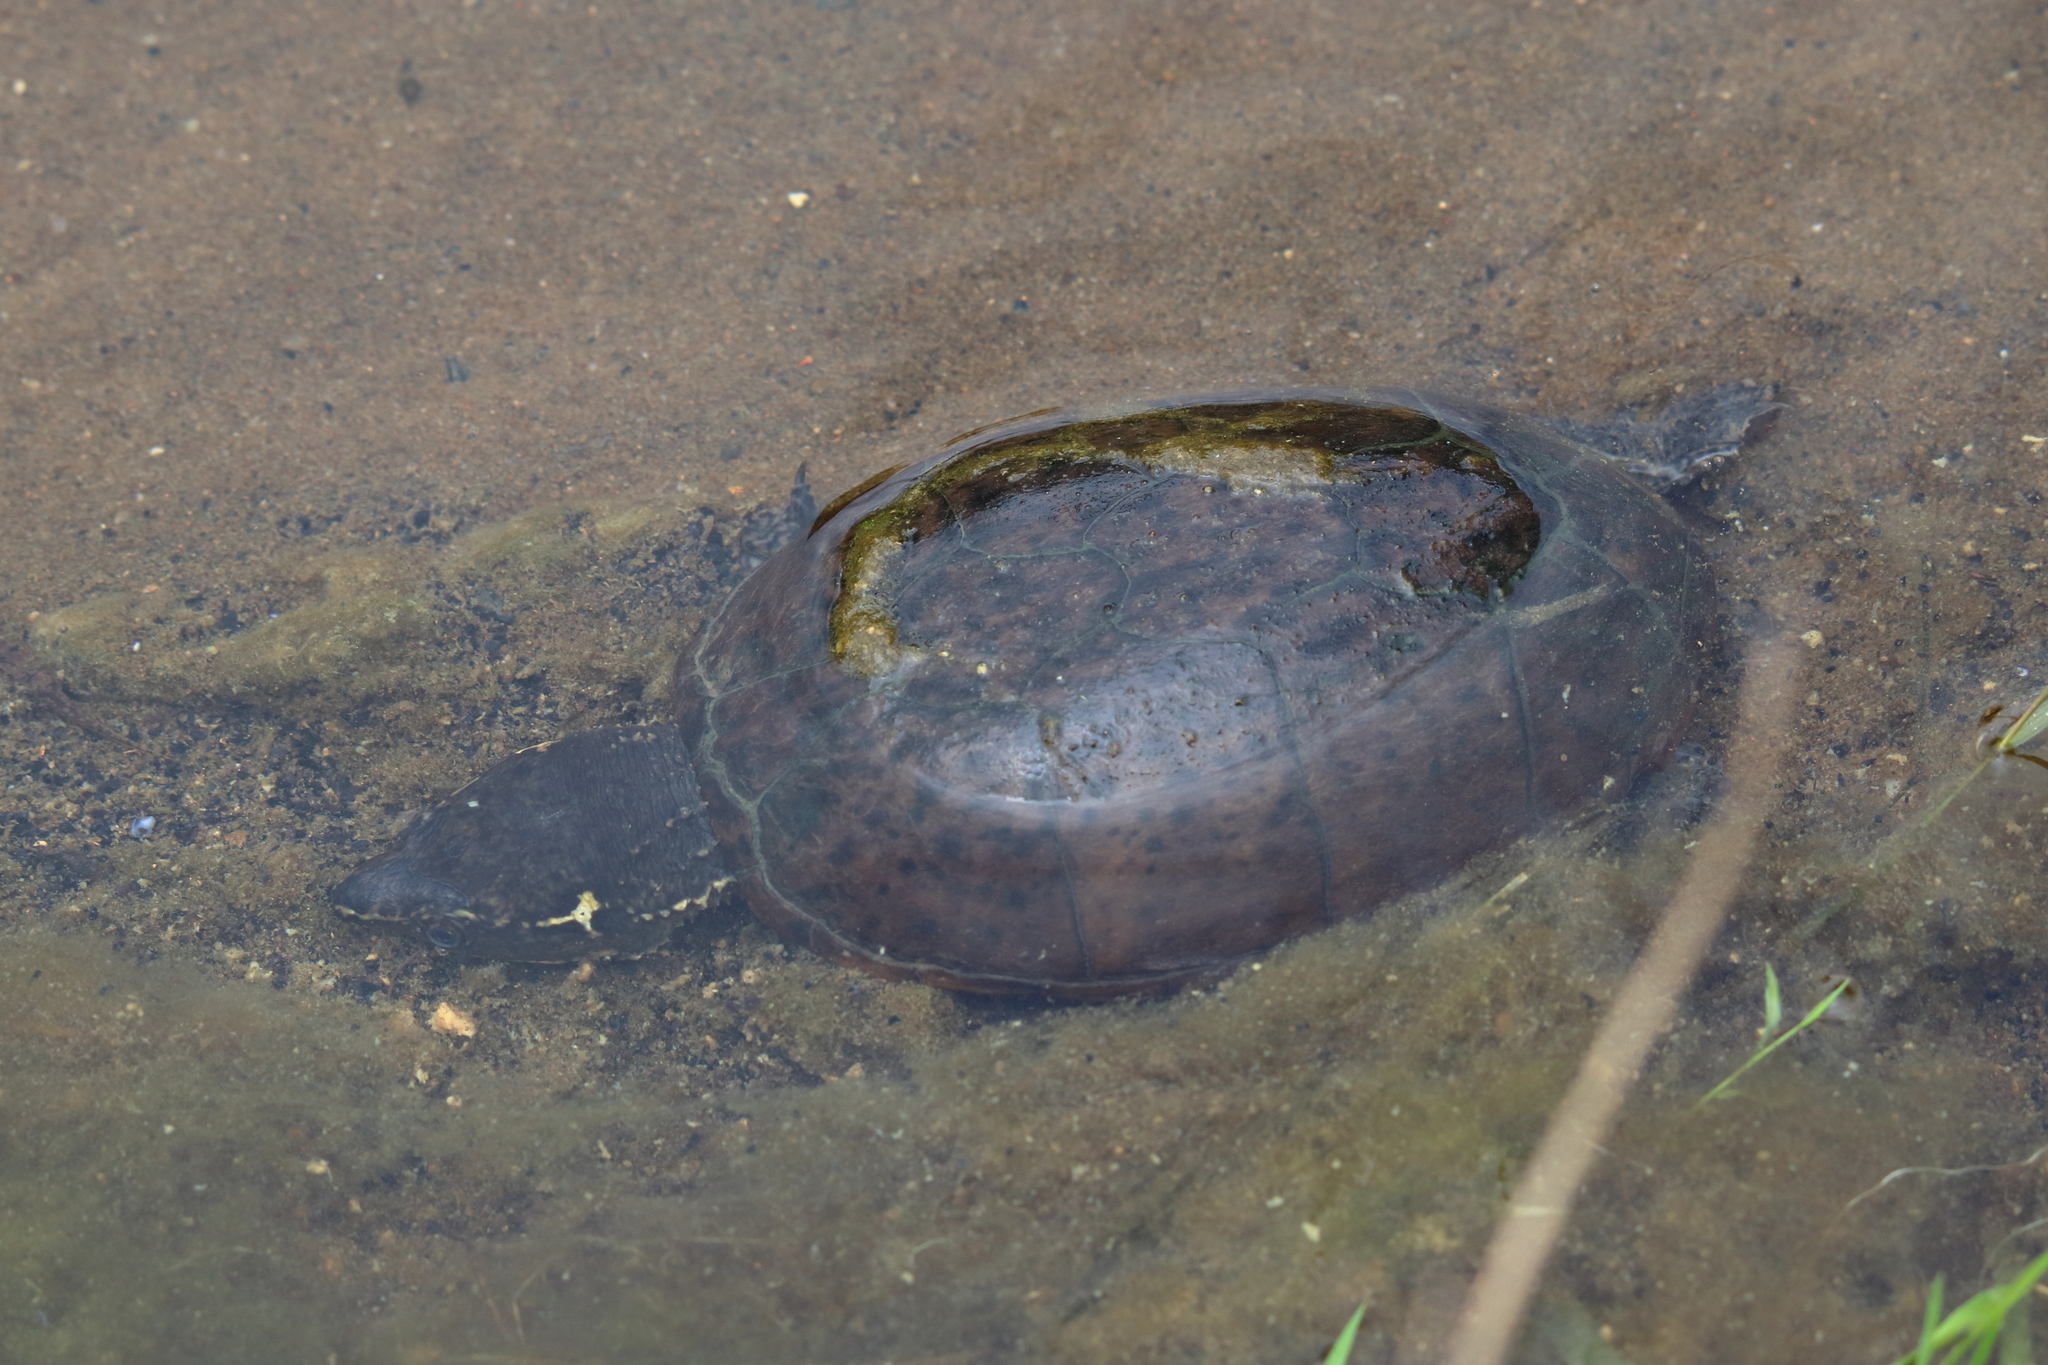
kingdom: Animalia
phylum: Chordata
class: Testudines
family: Kinosternidae
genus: Sternotherus
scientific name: Sternotherus odoratus
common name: Common musk turtle
